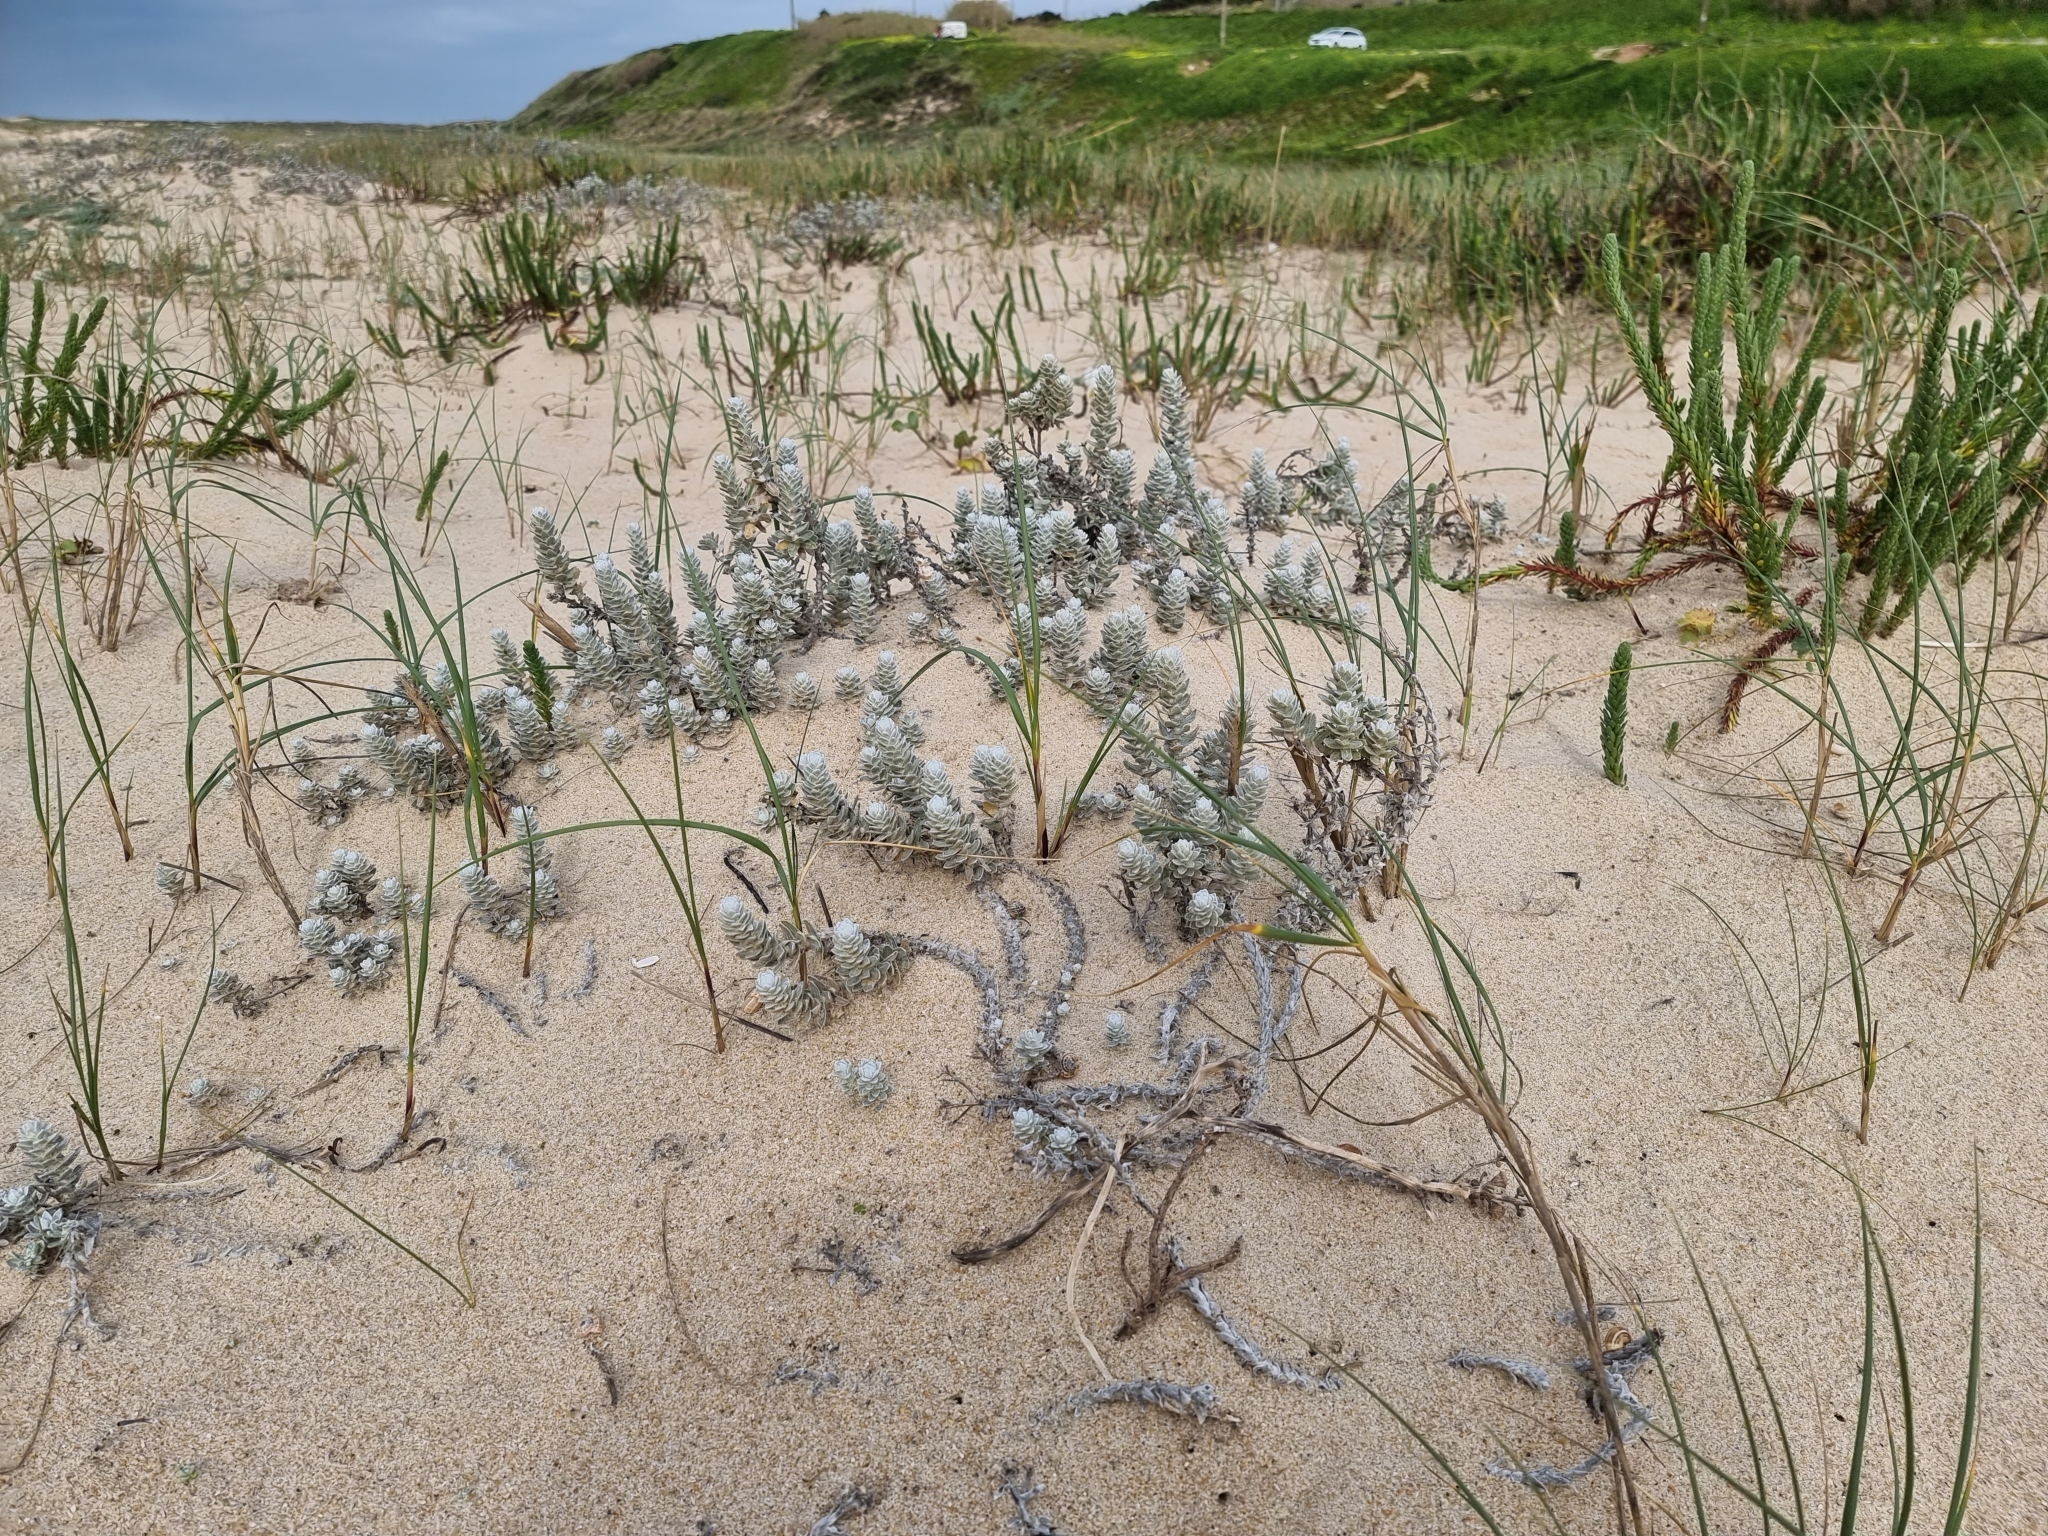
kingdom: Plantae
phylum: Tracheophyta
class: Magnoliopsida
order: Asterales
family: Asteraceae
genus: Achillea
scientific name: Achillea maritima
